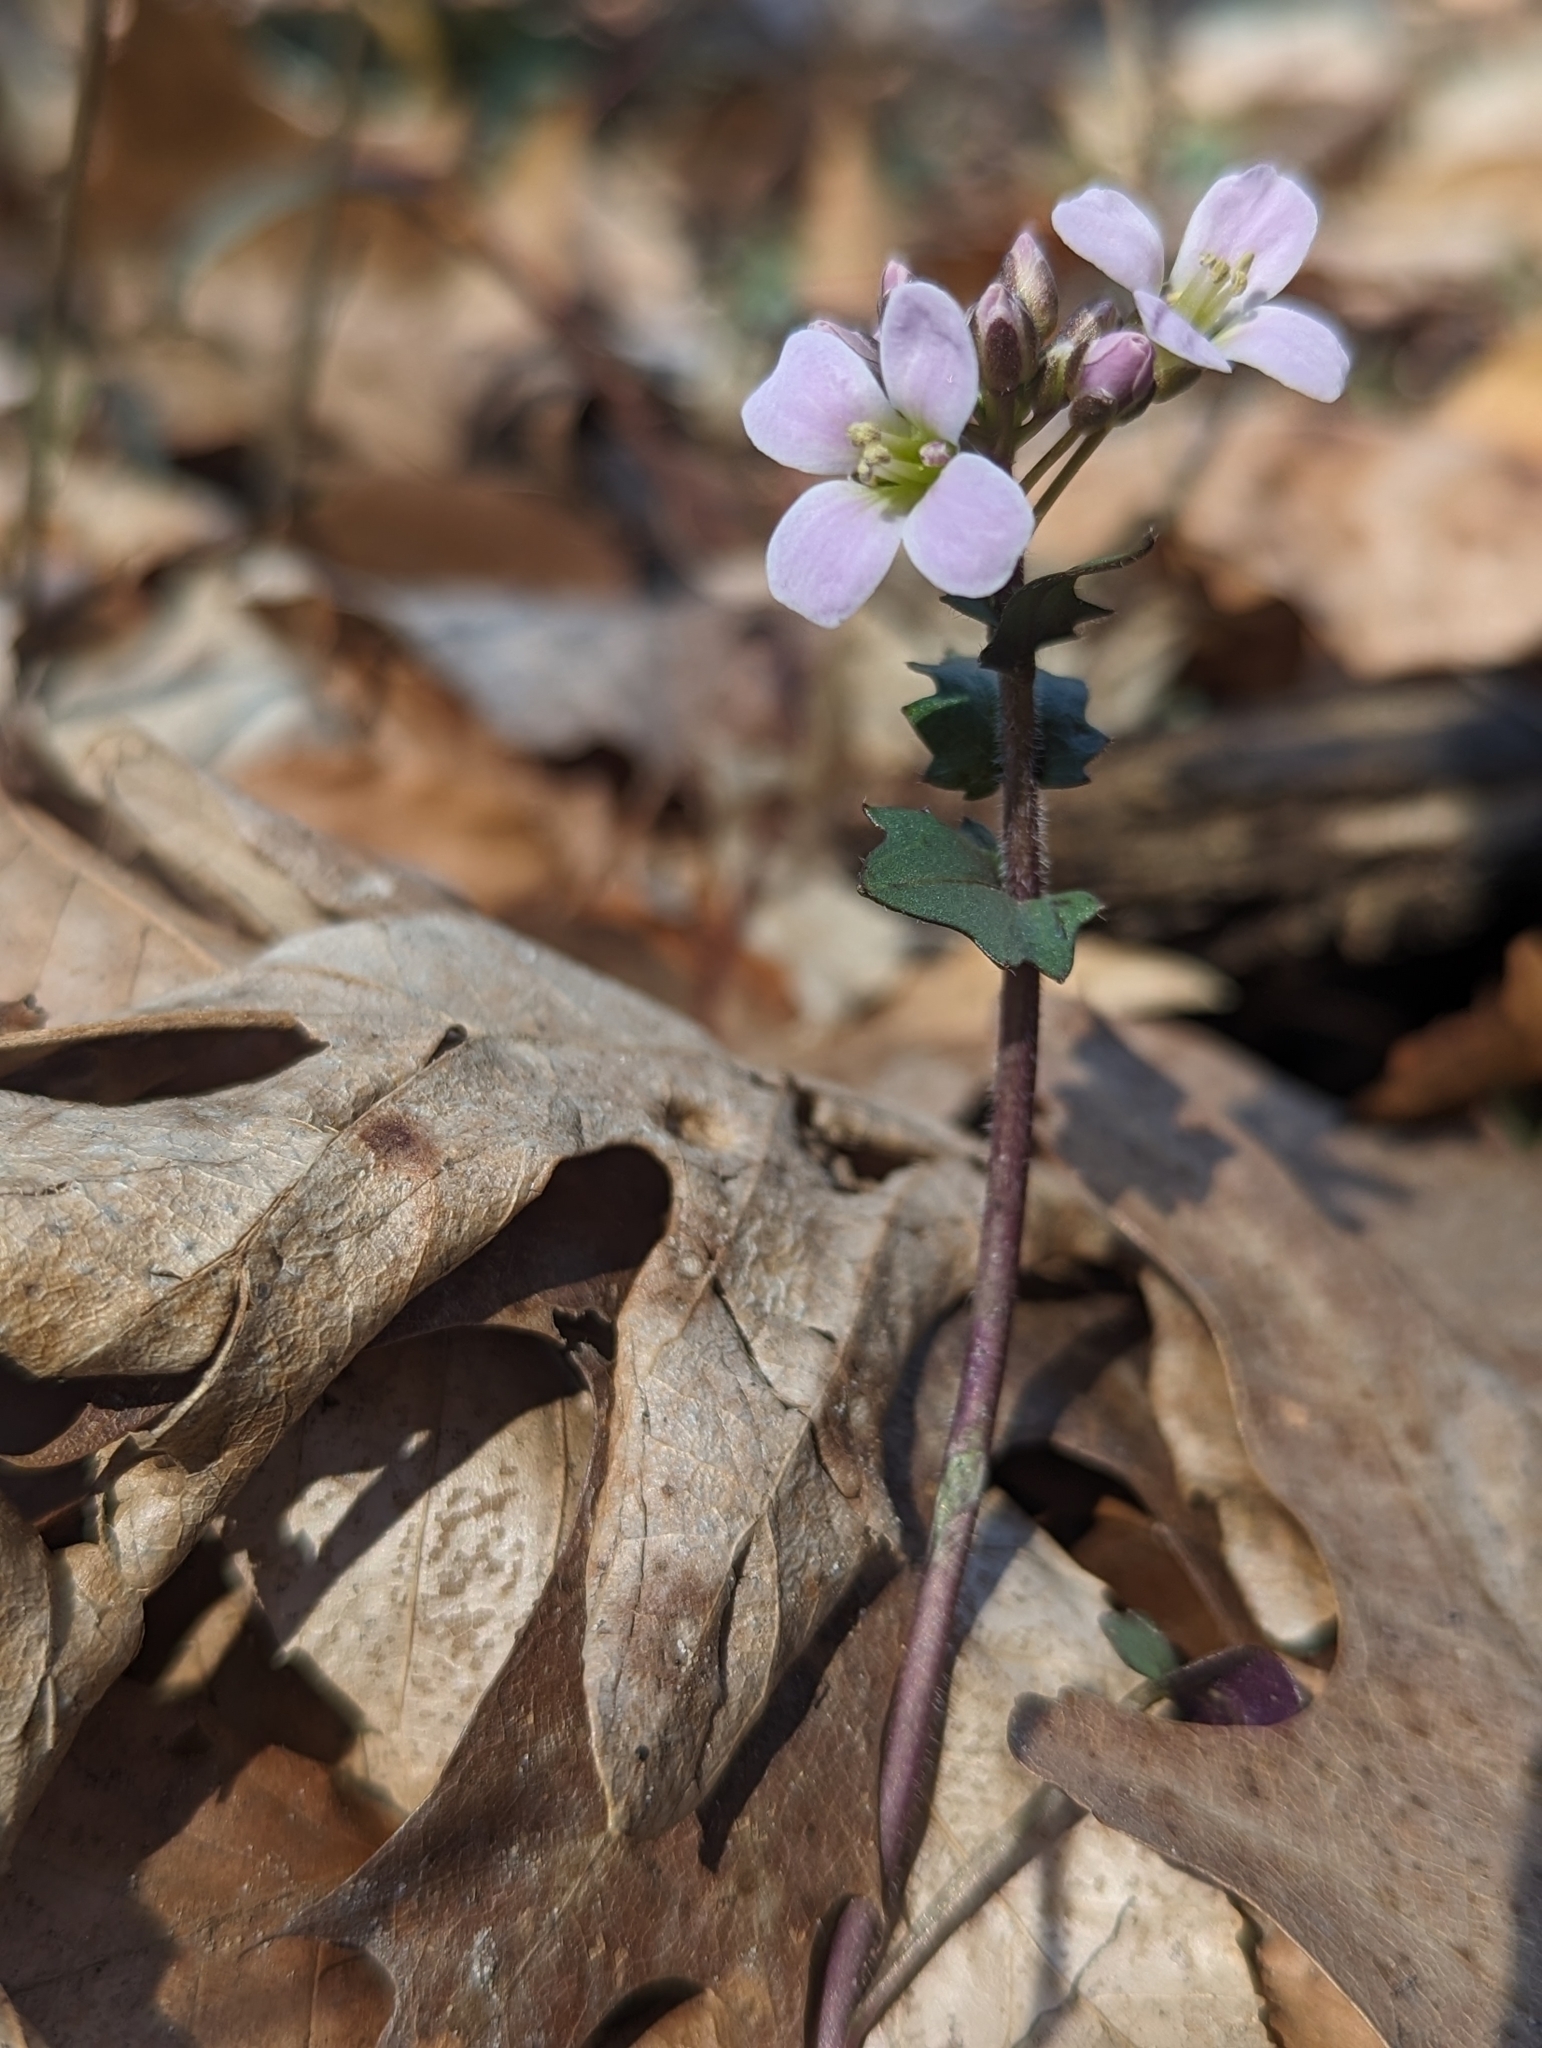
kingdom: Plantae
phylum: Tracheophyta
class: Magnoliopsida
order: Brassicales
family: Brassicaceae
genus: Cardamine
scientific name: Cardamine douglassii
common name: Purple cress
